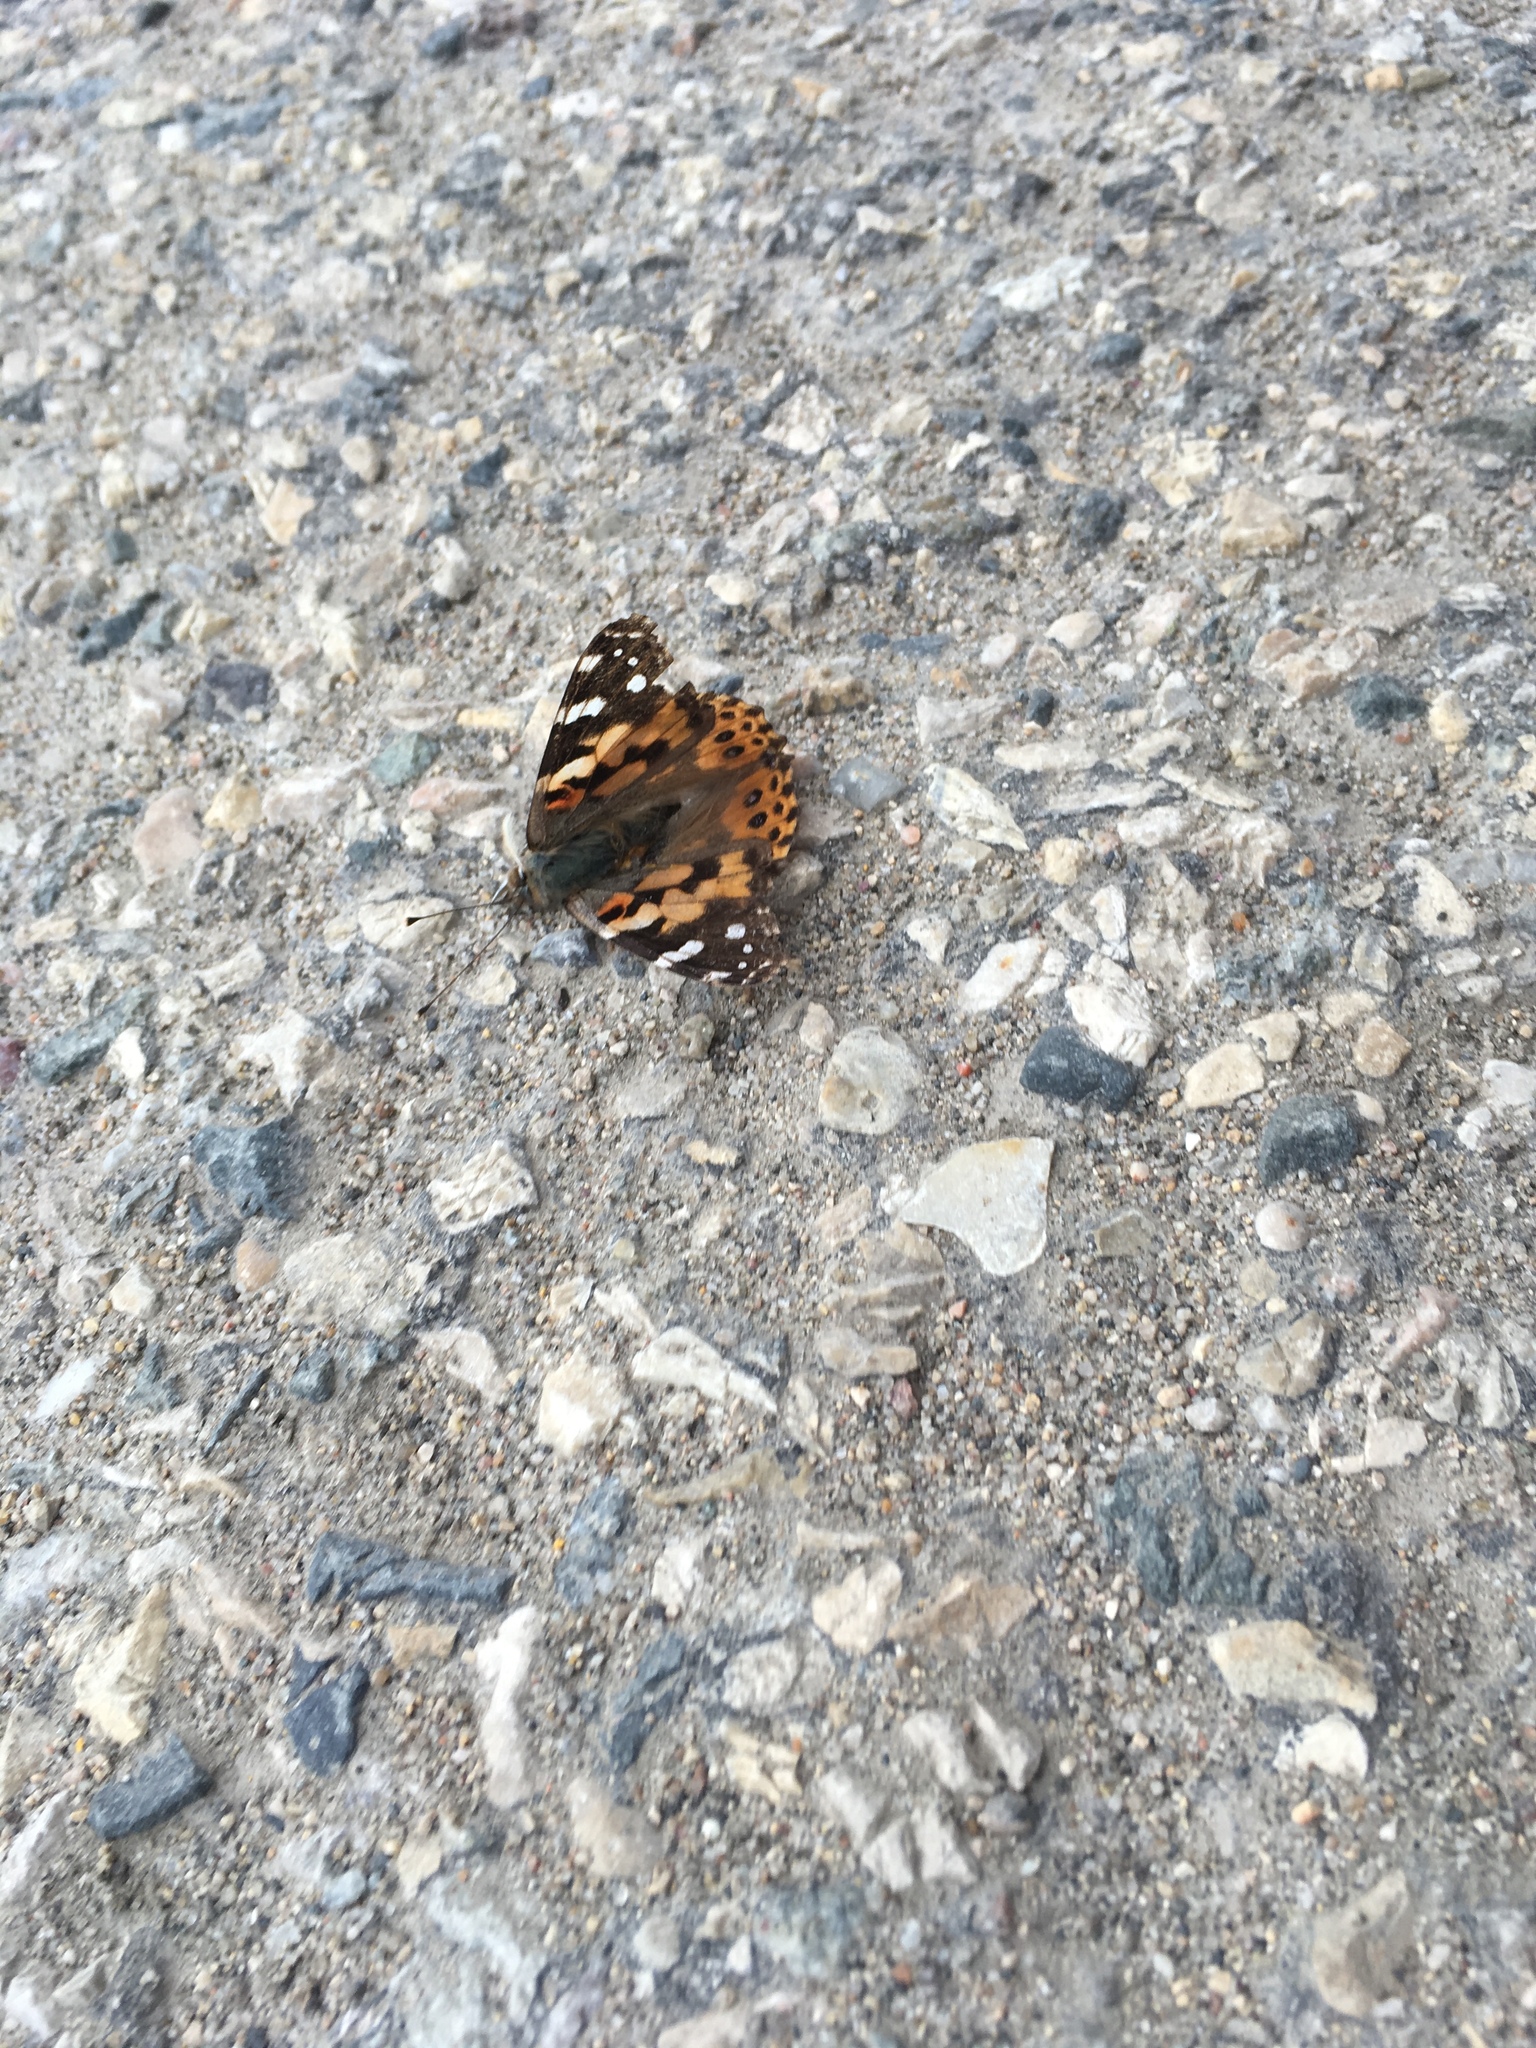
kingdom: Animalia
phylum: Arthropoda
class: Insecta
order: Lepidoptera
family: Nymphalidae
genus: Vanessa
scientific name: Vanessa cardui
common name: Painted lady
